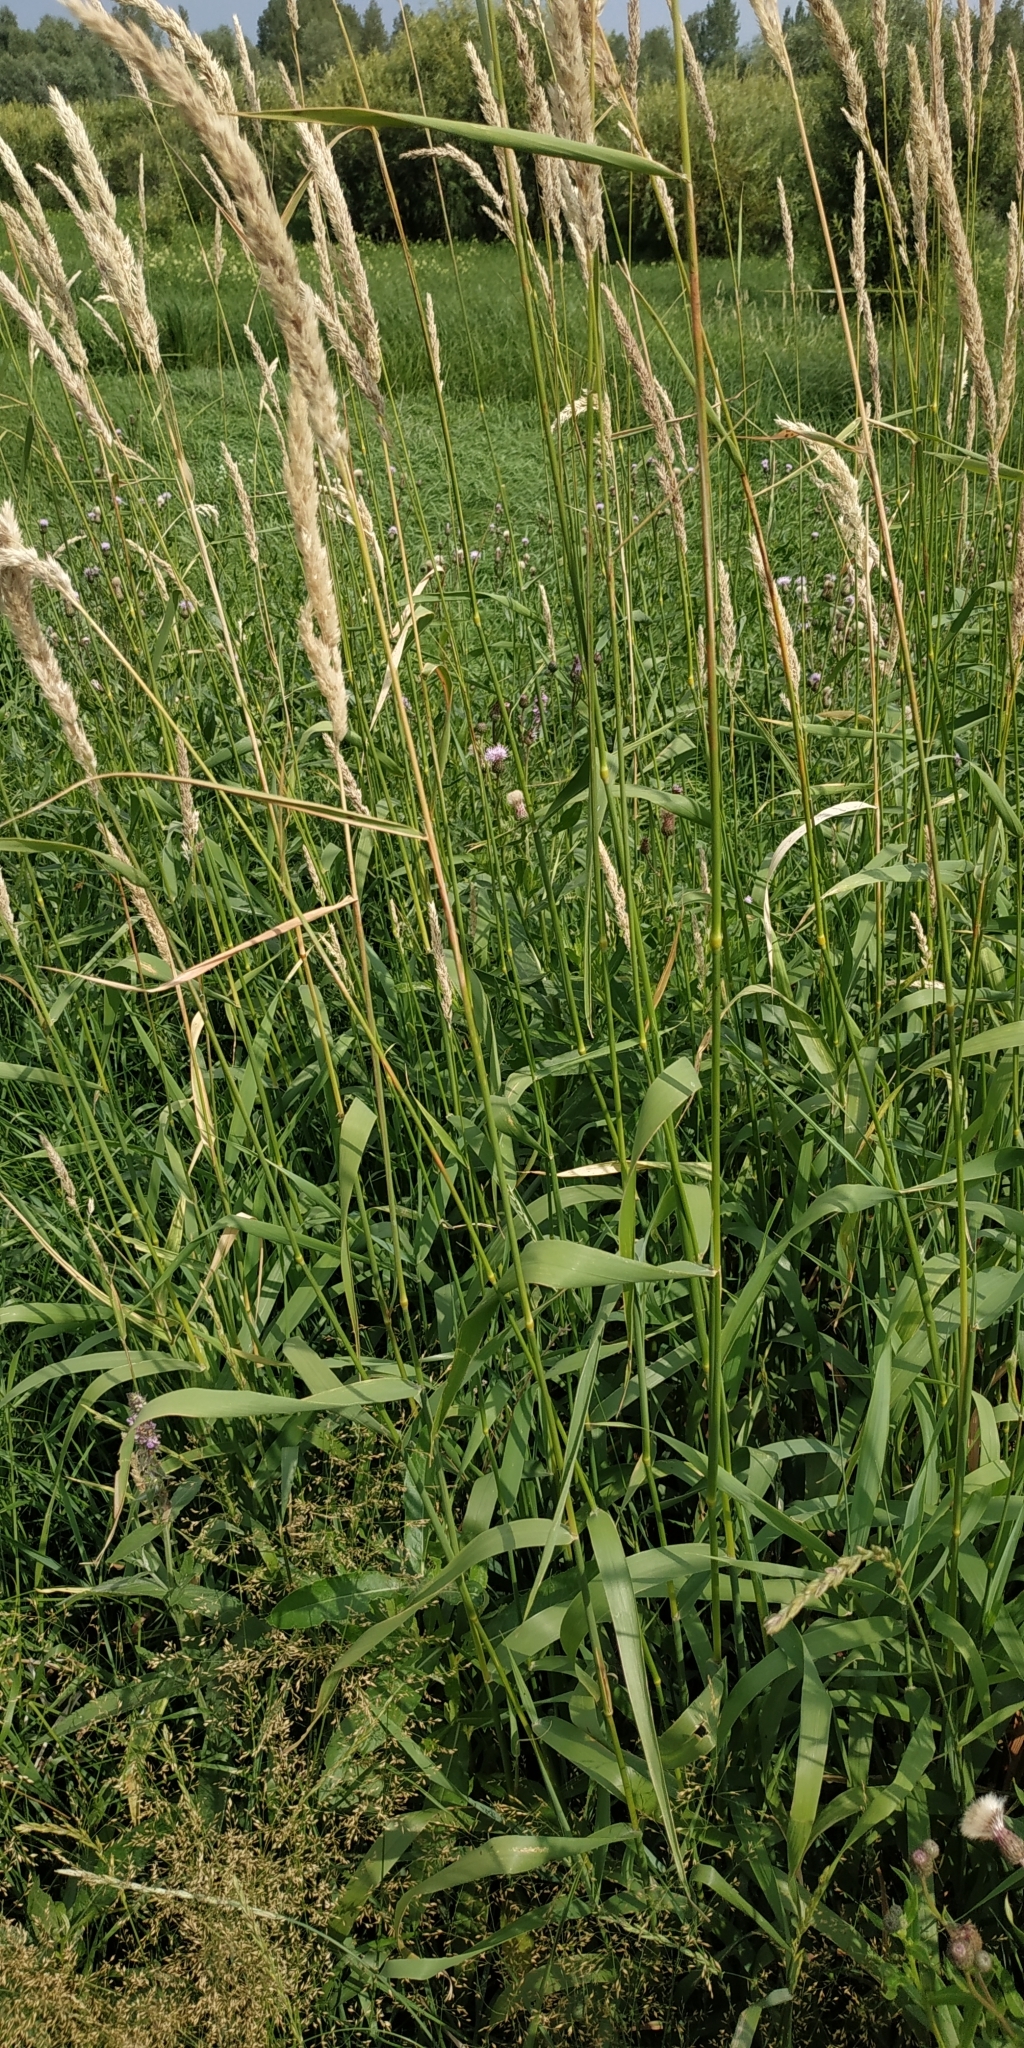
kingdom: Plantae
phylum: Tracheophyta
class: Liliopsida
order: Poales
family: Poaceae
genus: Phalaris
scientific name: Phalaris arundinacea
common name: Reed canary-grass
